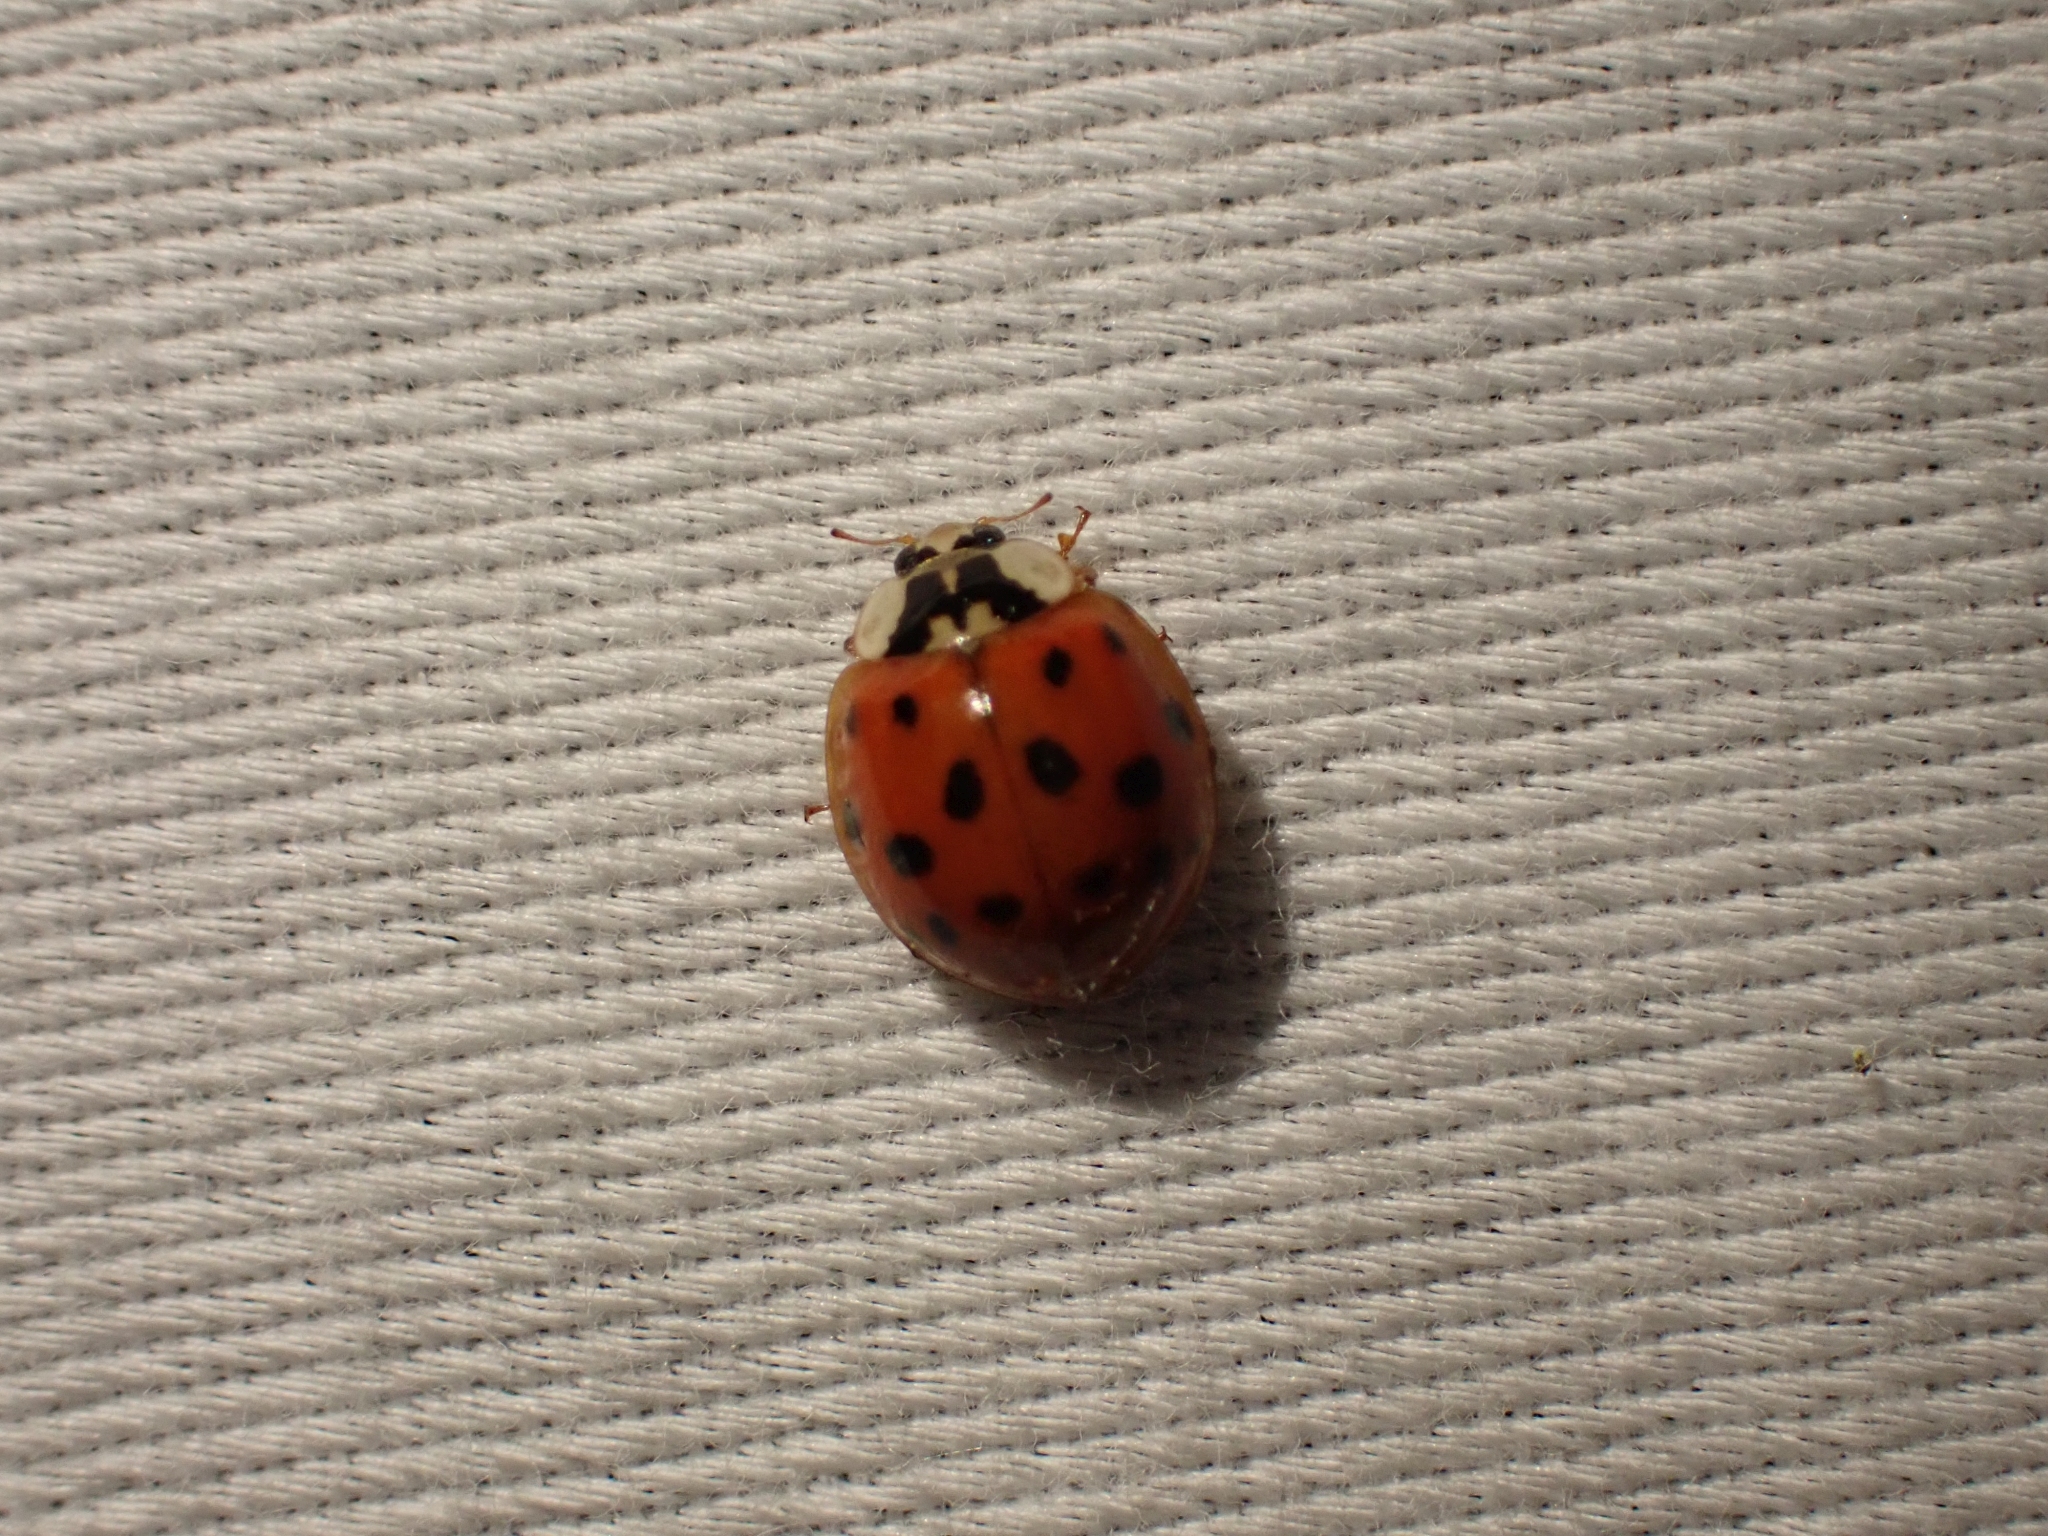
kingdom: Animalia
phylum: Arthropoda
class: Insecta
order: Coleoptera
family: Coccinellidae
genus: Harmonia
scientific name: Harmonia axyridis
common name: Harlequin ladybird
